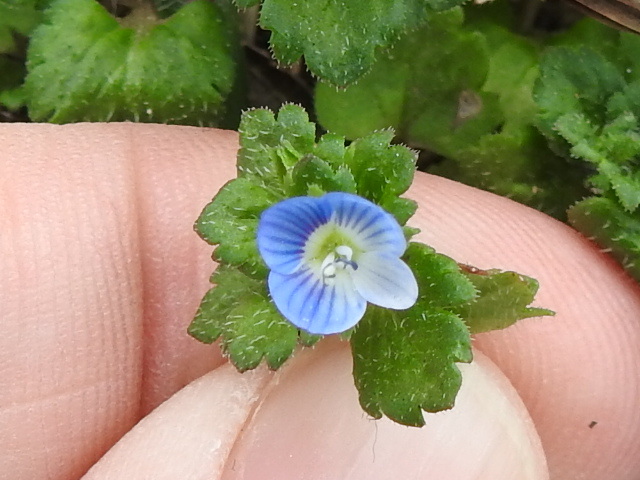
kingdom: Plantae
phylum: Tracheophyta
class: Magnoliopsida
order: Lamiales
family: Plantaginaceae
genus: Veronica
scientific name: Veronica persica
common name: Common field-speedwell
